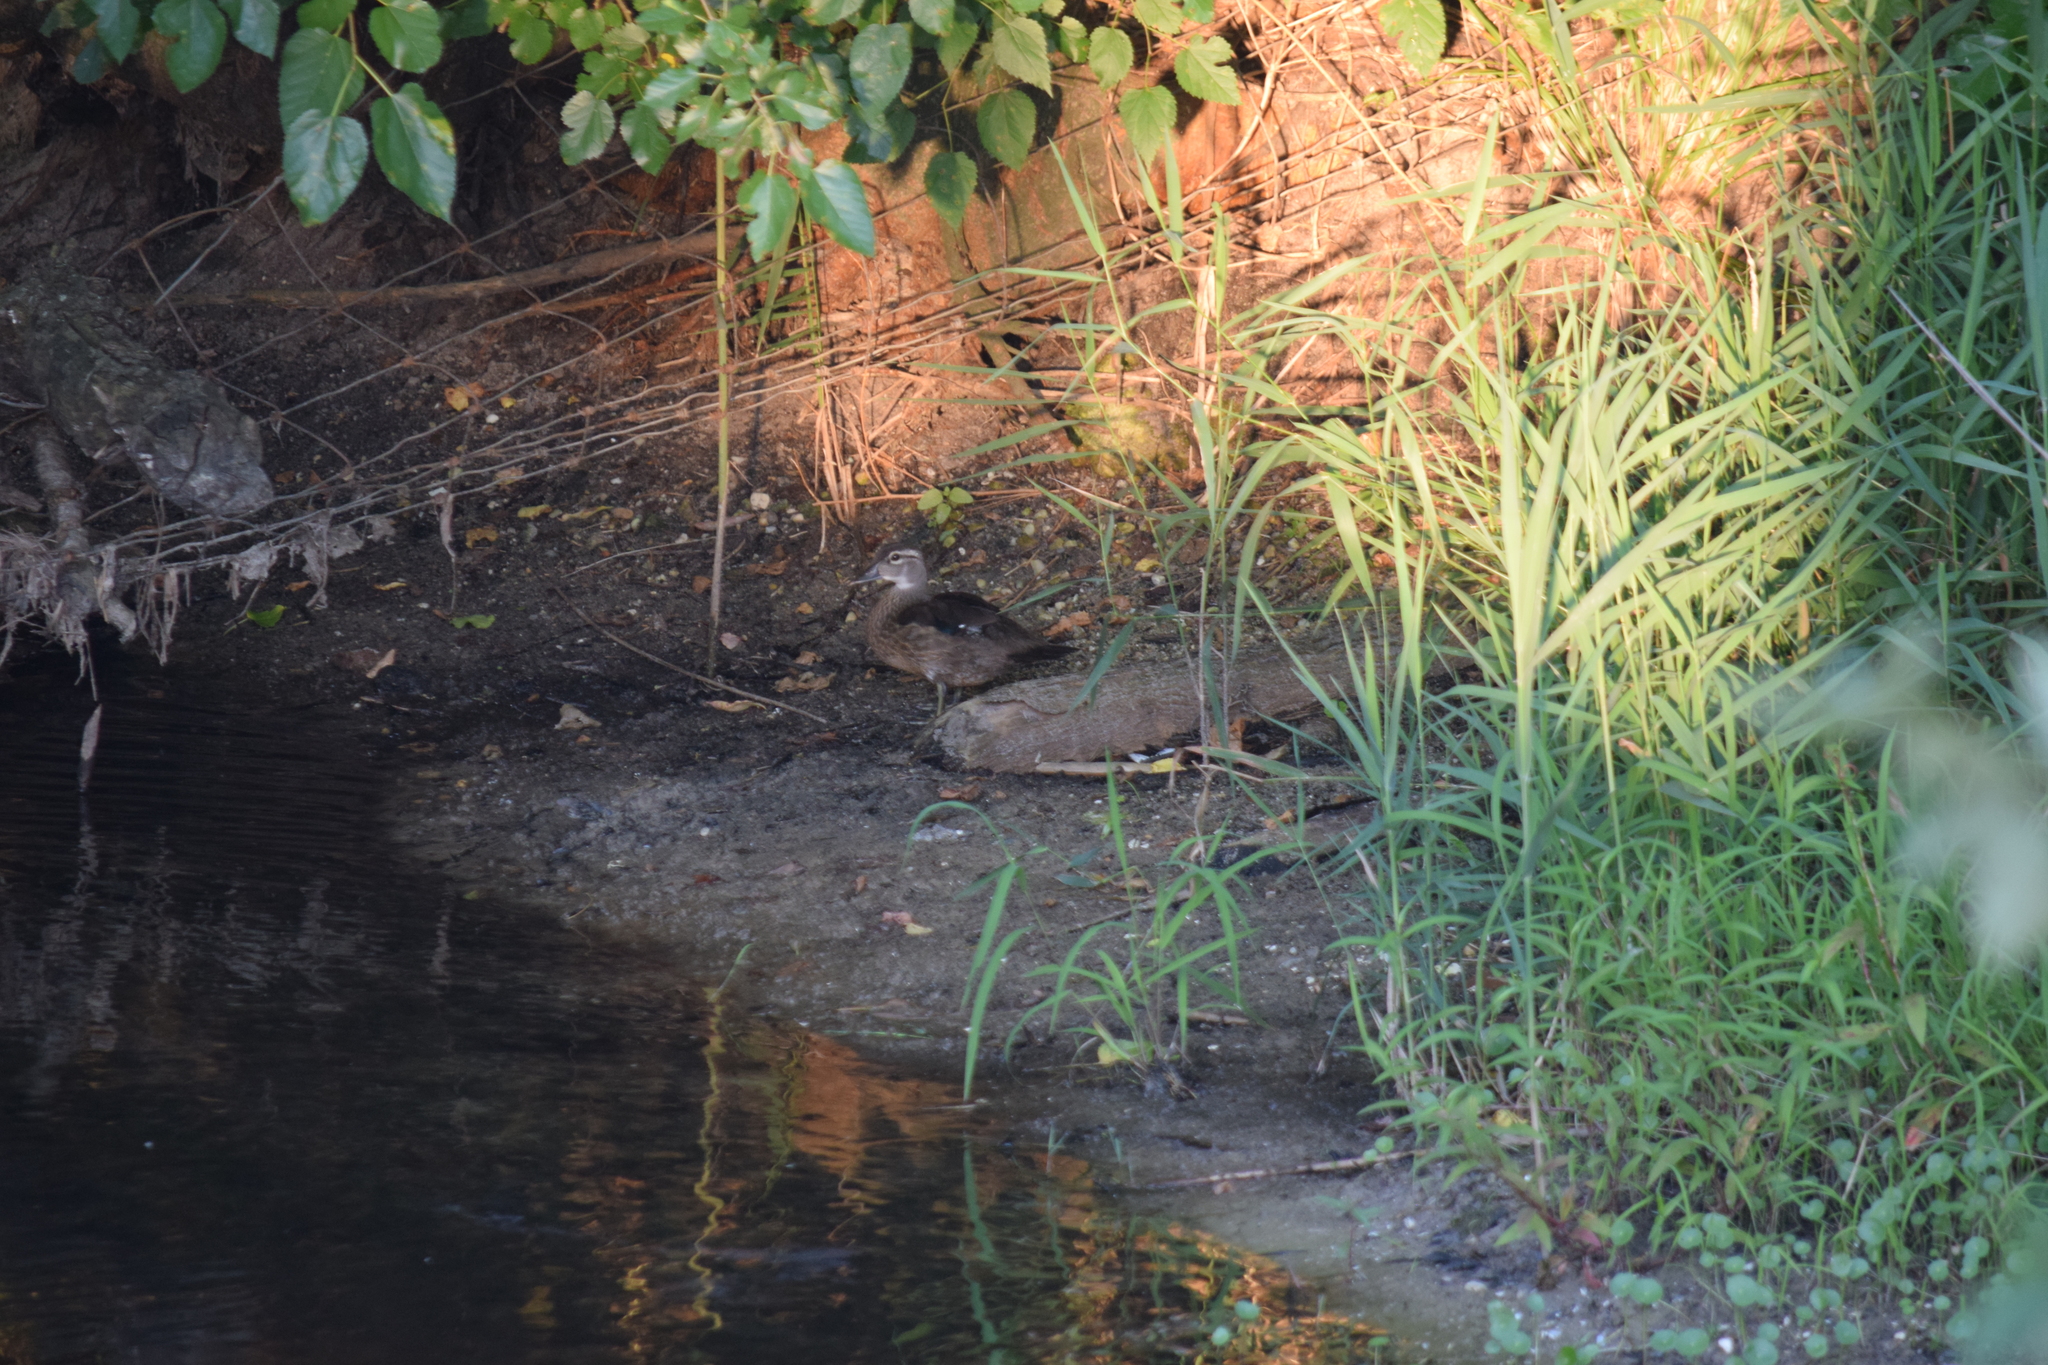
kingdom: Animalia
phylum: Chordata
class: Aves
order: Anseriformes
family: Anatidae
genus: Aix
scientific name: Aix sponsa
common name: Wood duck
